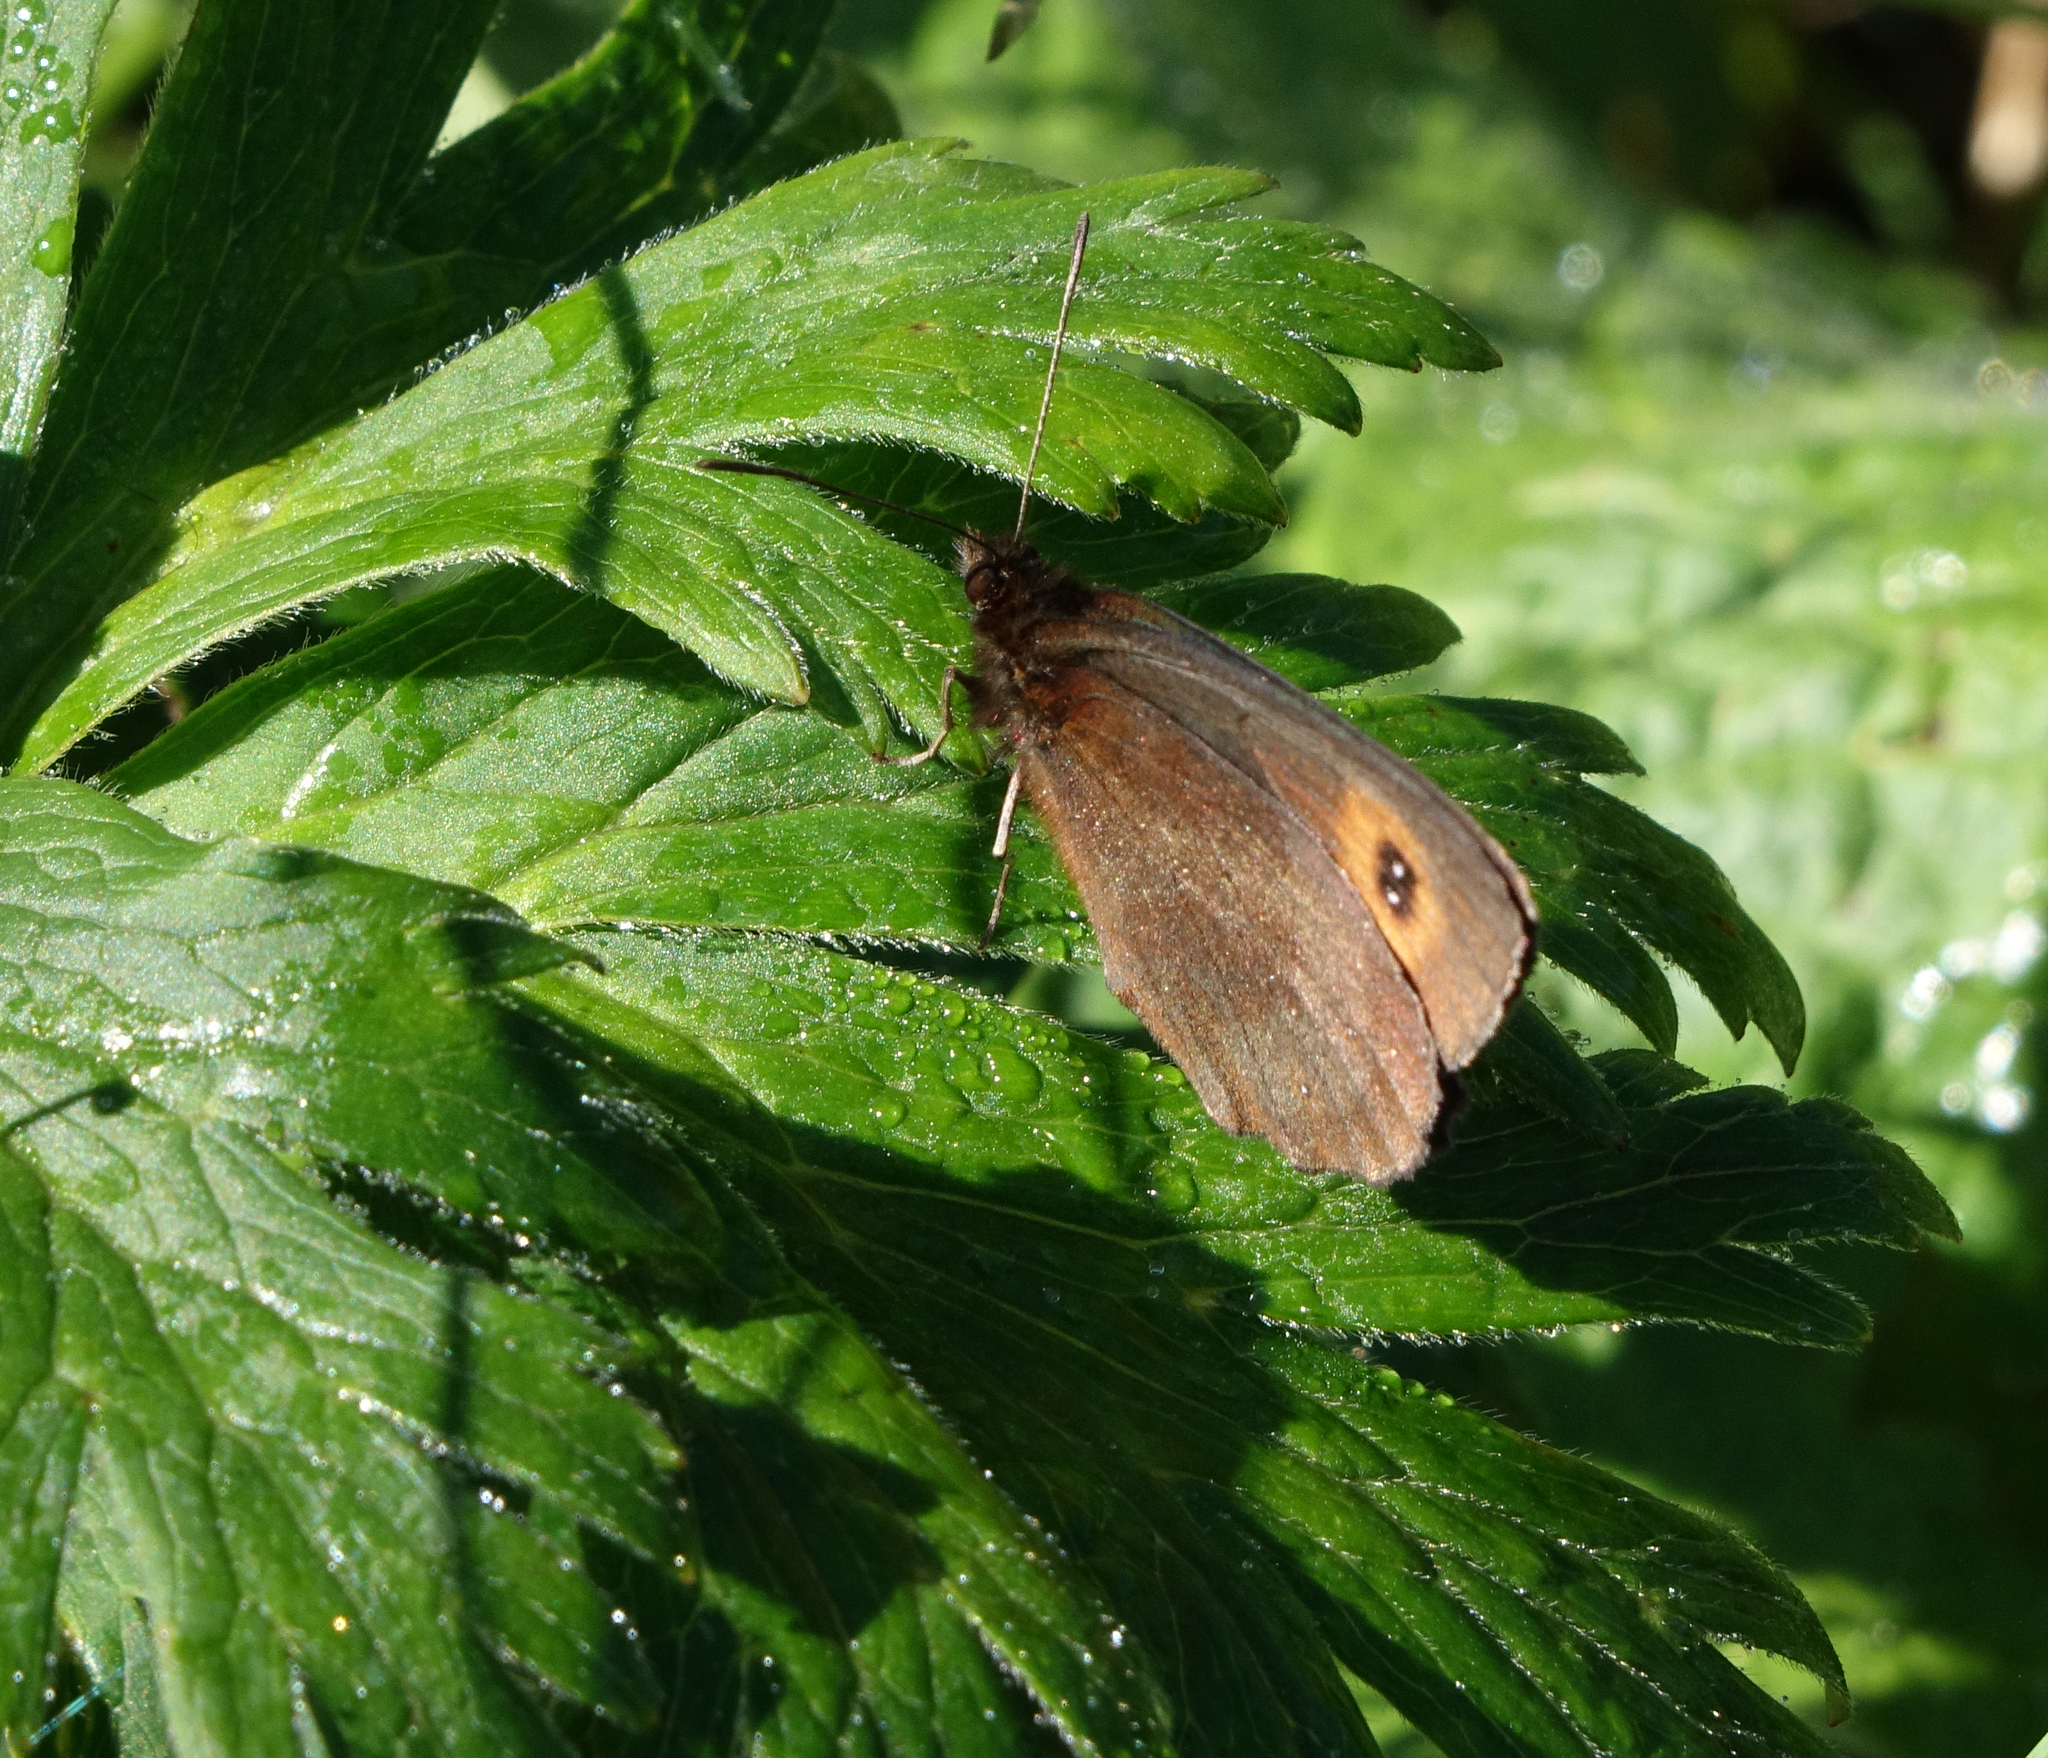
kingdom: Animalia
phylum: Arthropoda
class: Insecta
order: Lepidoptera
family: Nymphalidae
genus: Erebia
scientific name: Erebia aethiops
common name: Scotch argus
